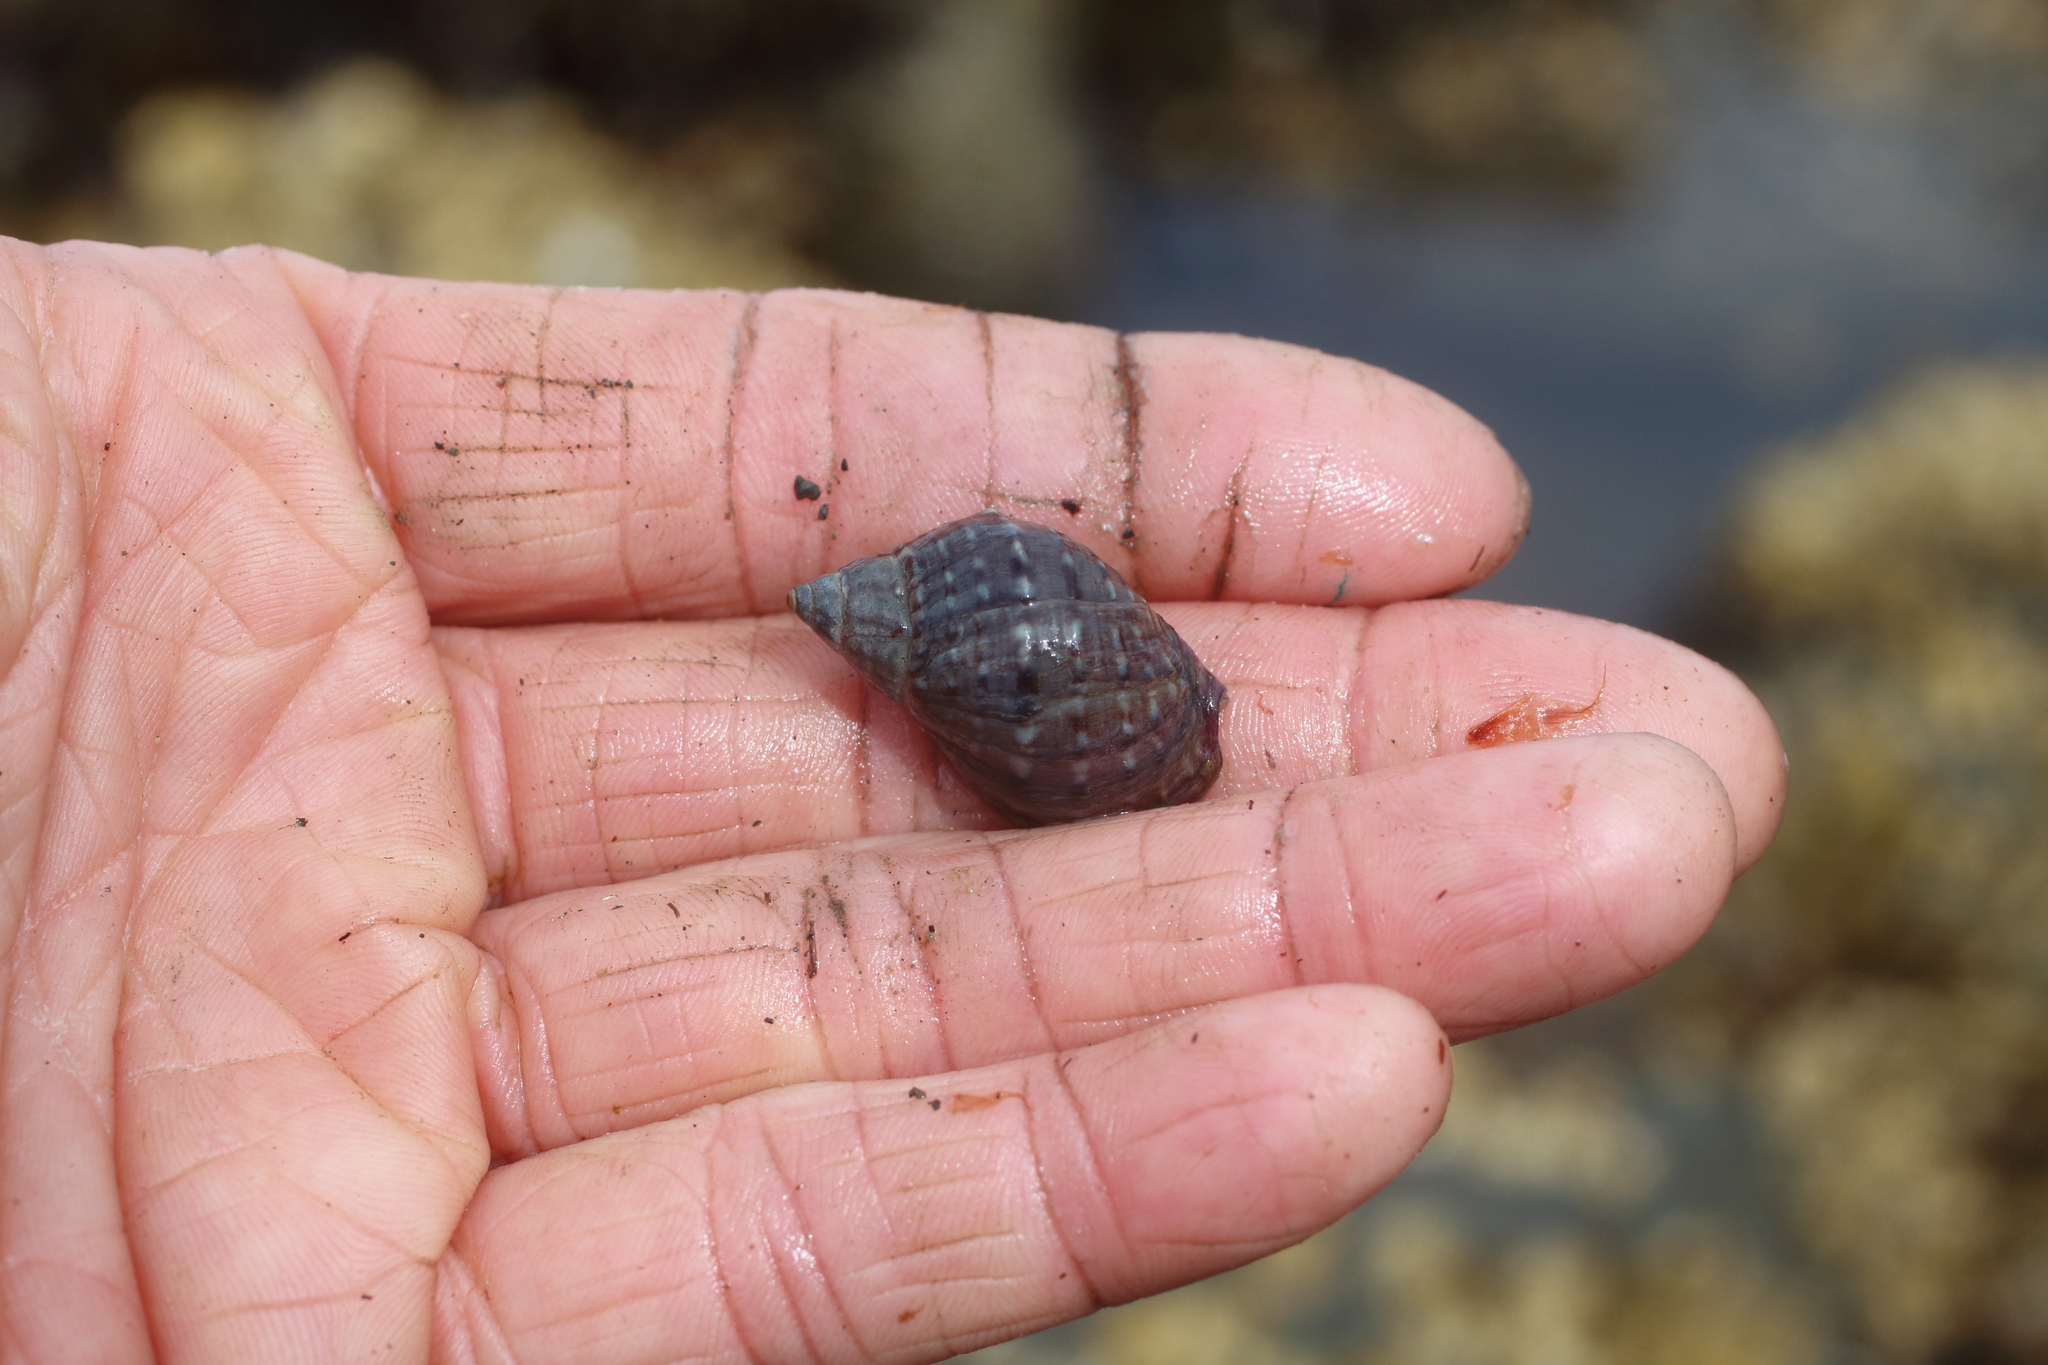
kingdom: Animalia
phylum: Mollusca
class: Gastropoda
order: Neogastropoda
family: Buccinidae
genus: Buccinum
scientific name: Buccinum baerii
